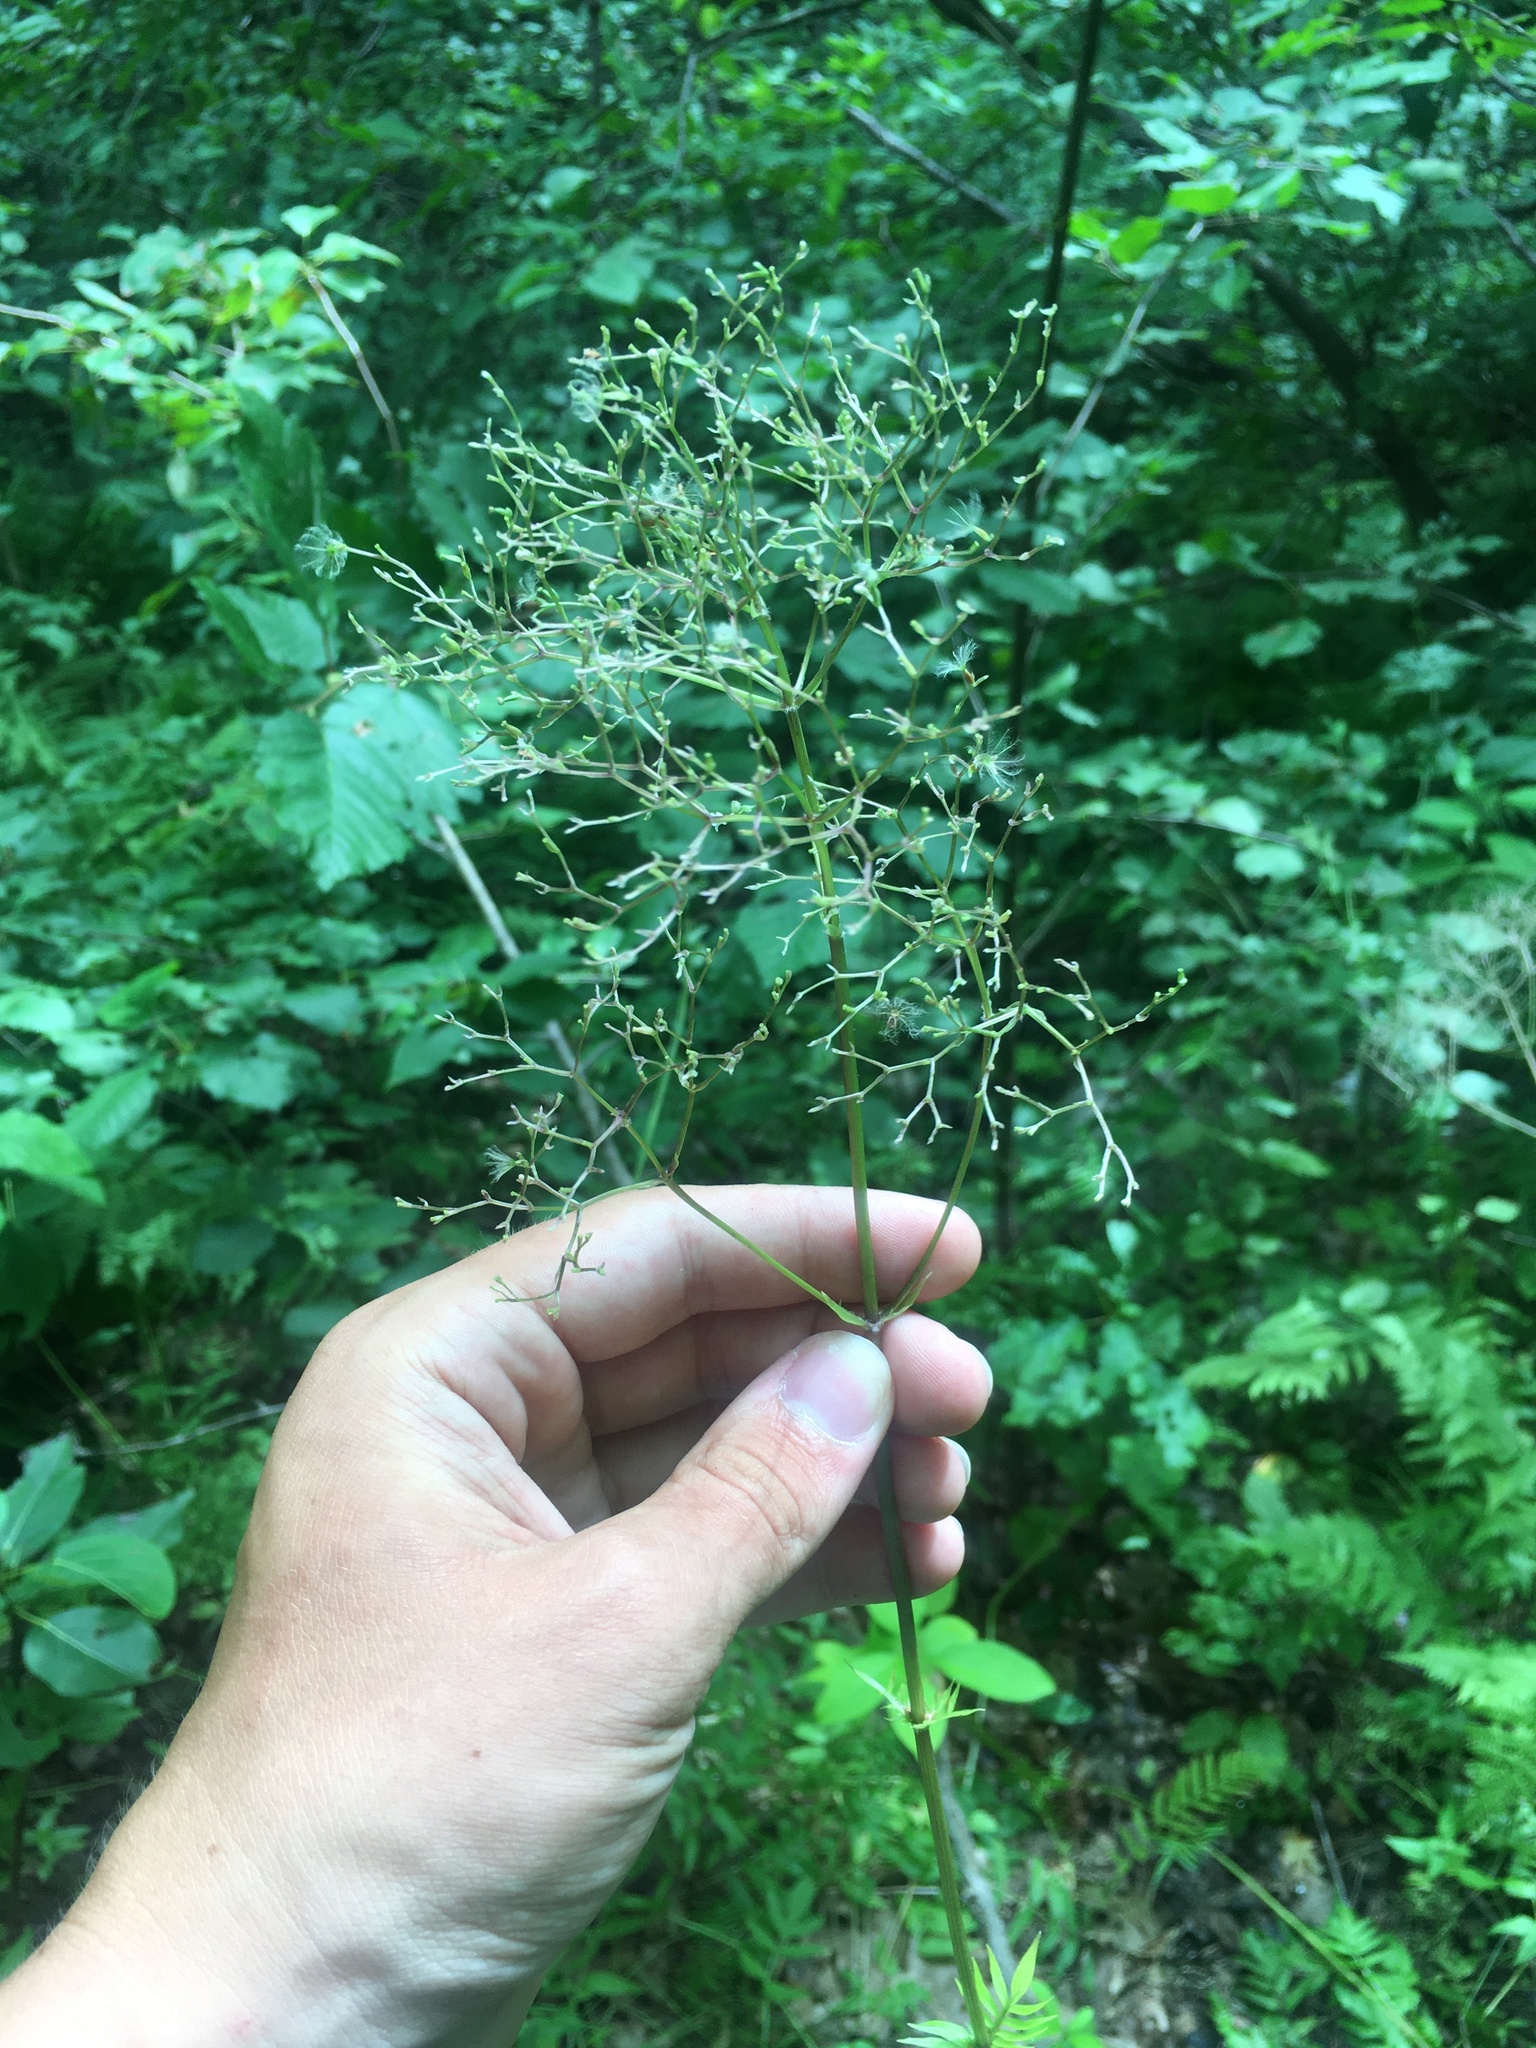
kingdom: Plantae
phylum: Tracheophyta
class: Magnoliopsida
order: Dipsacales
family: Caprifoliaceae
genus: Valeriana
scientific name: Valeriana officinalis
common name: Common valerian
